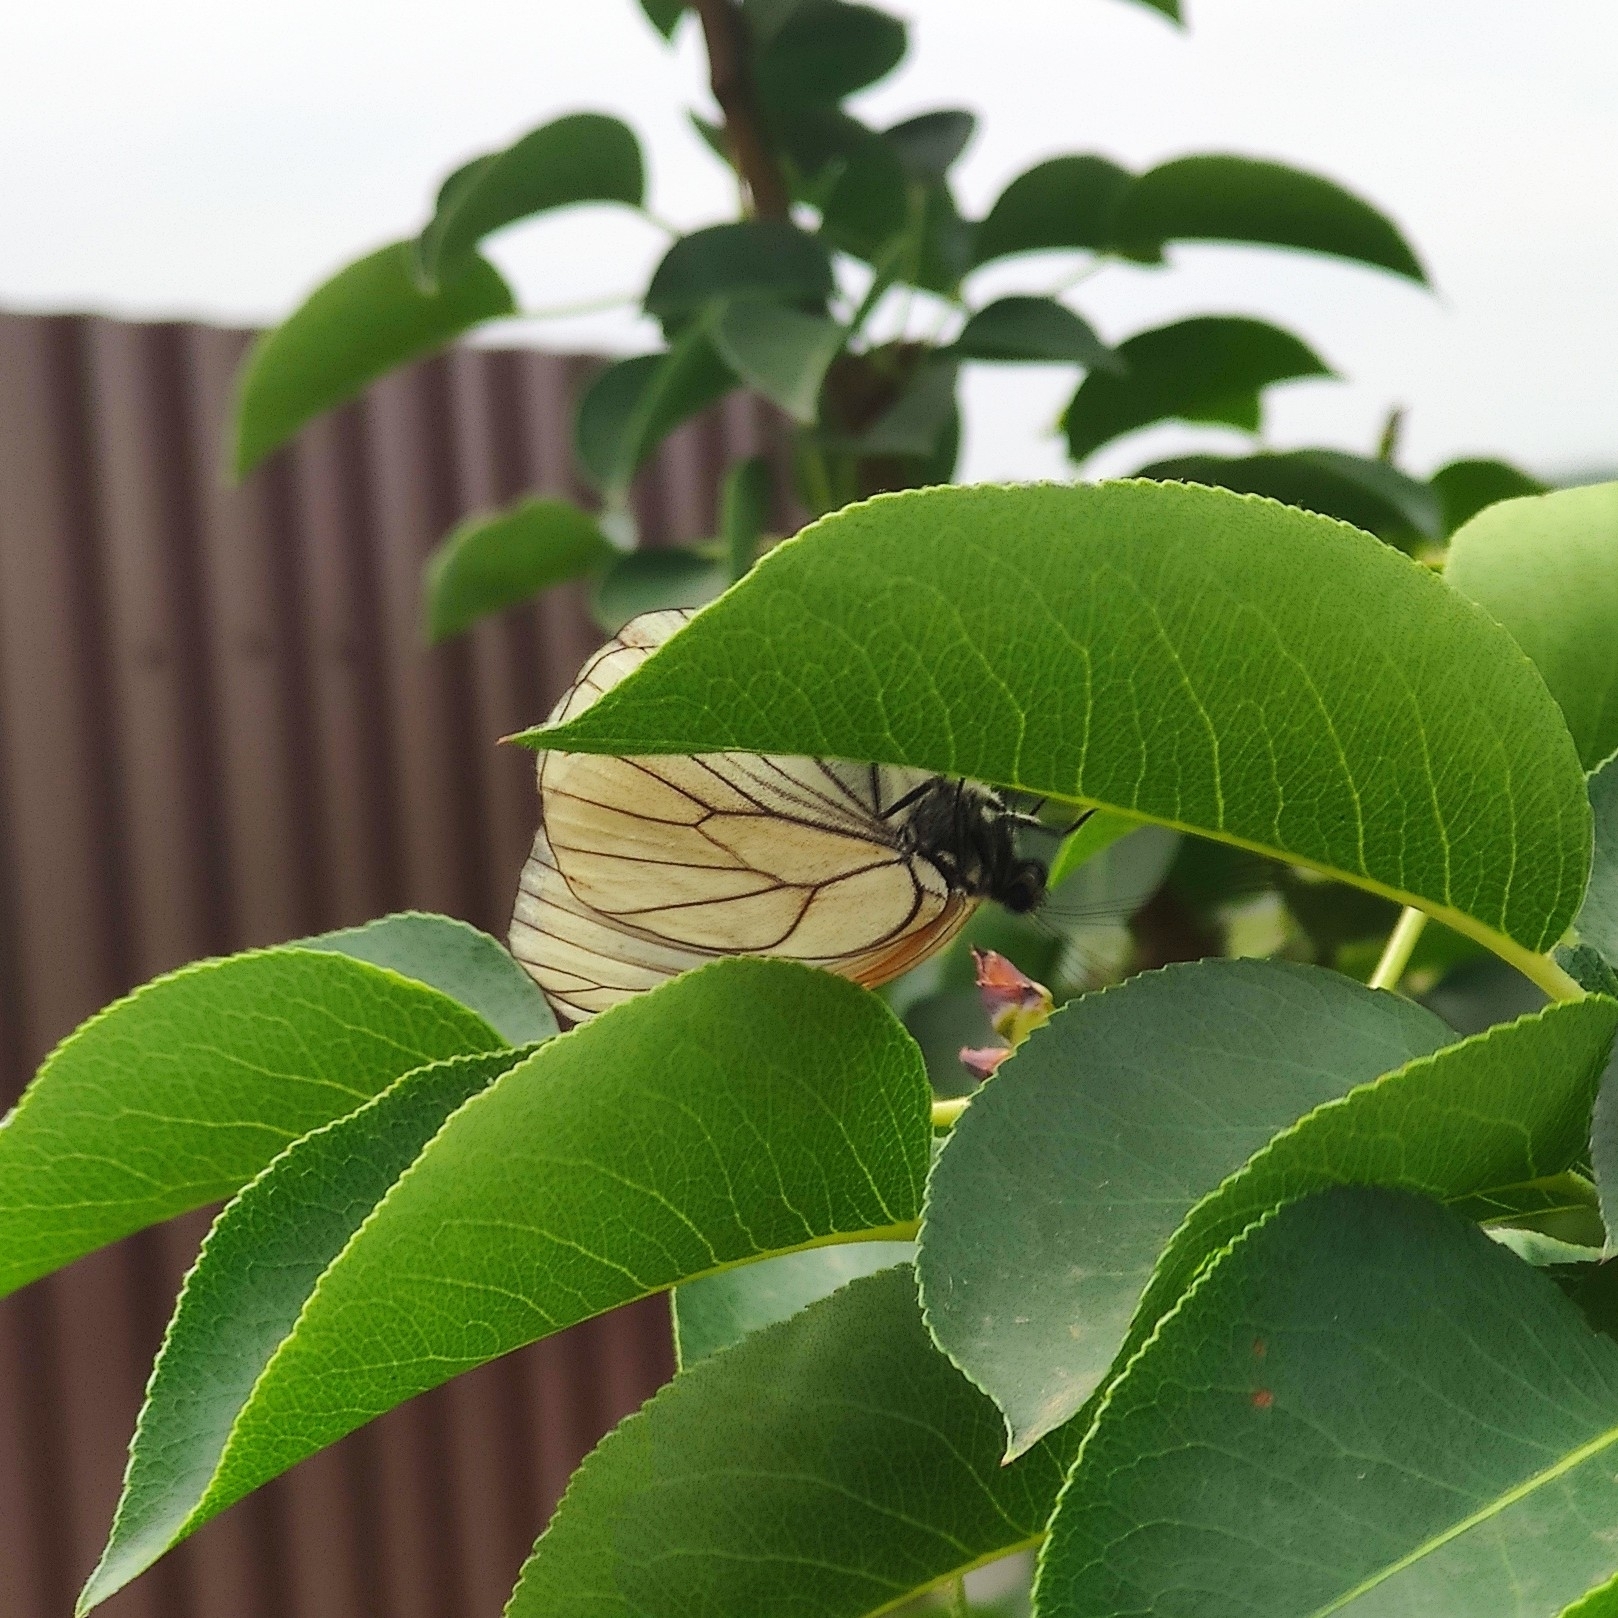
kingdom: Animalia
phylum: Arthropoda
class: Insecta
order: Lepidoptera
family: Pieridae
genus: Aporia
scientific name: Aporia crataegi
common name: Black-veined white
